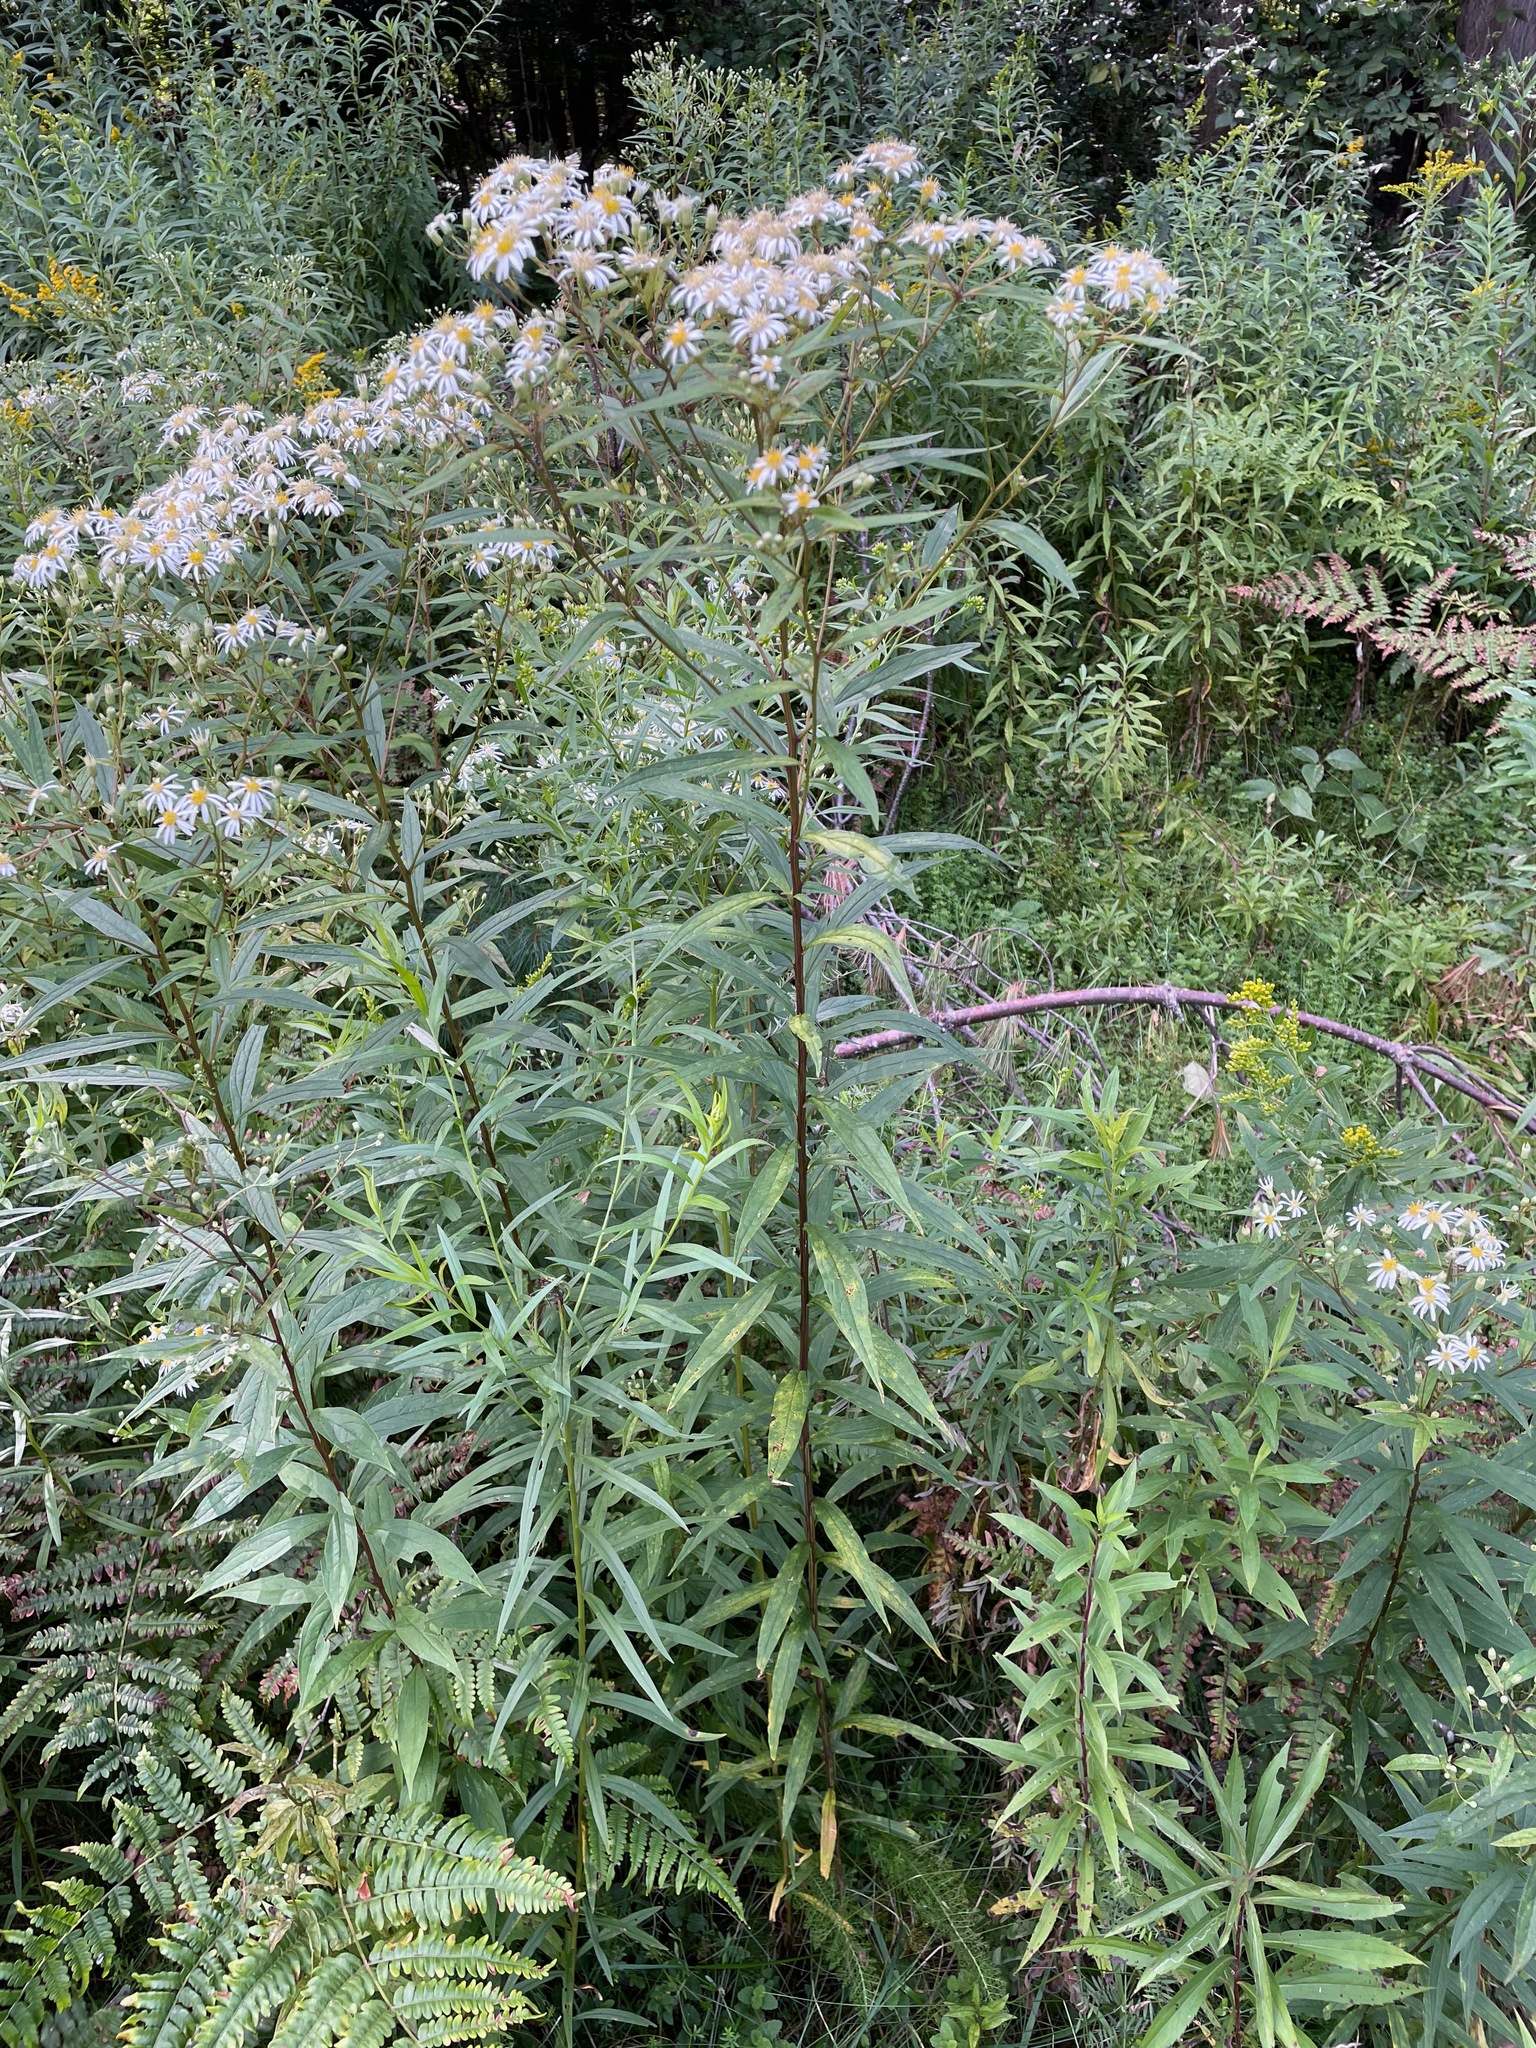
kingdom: Plantae
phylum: Tracheophyta
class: Magnoliopsida
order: Asterales
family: Asteraceae
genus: Doellingeria
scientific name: Doellingeria umbellata
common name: Flat-top white aster
